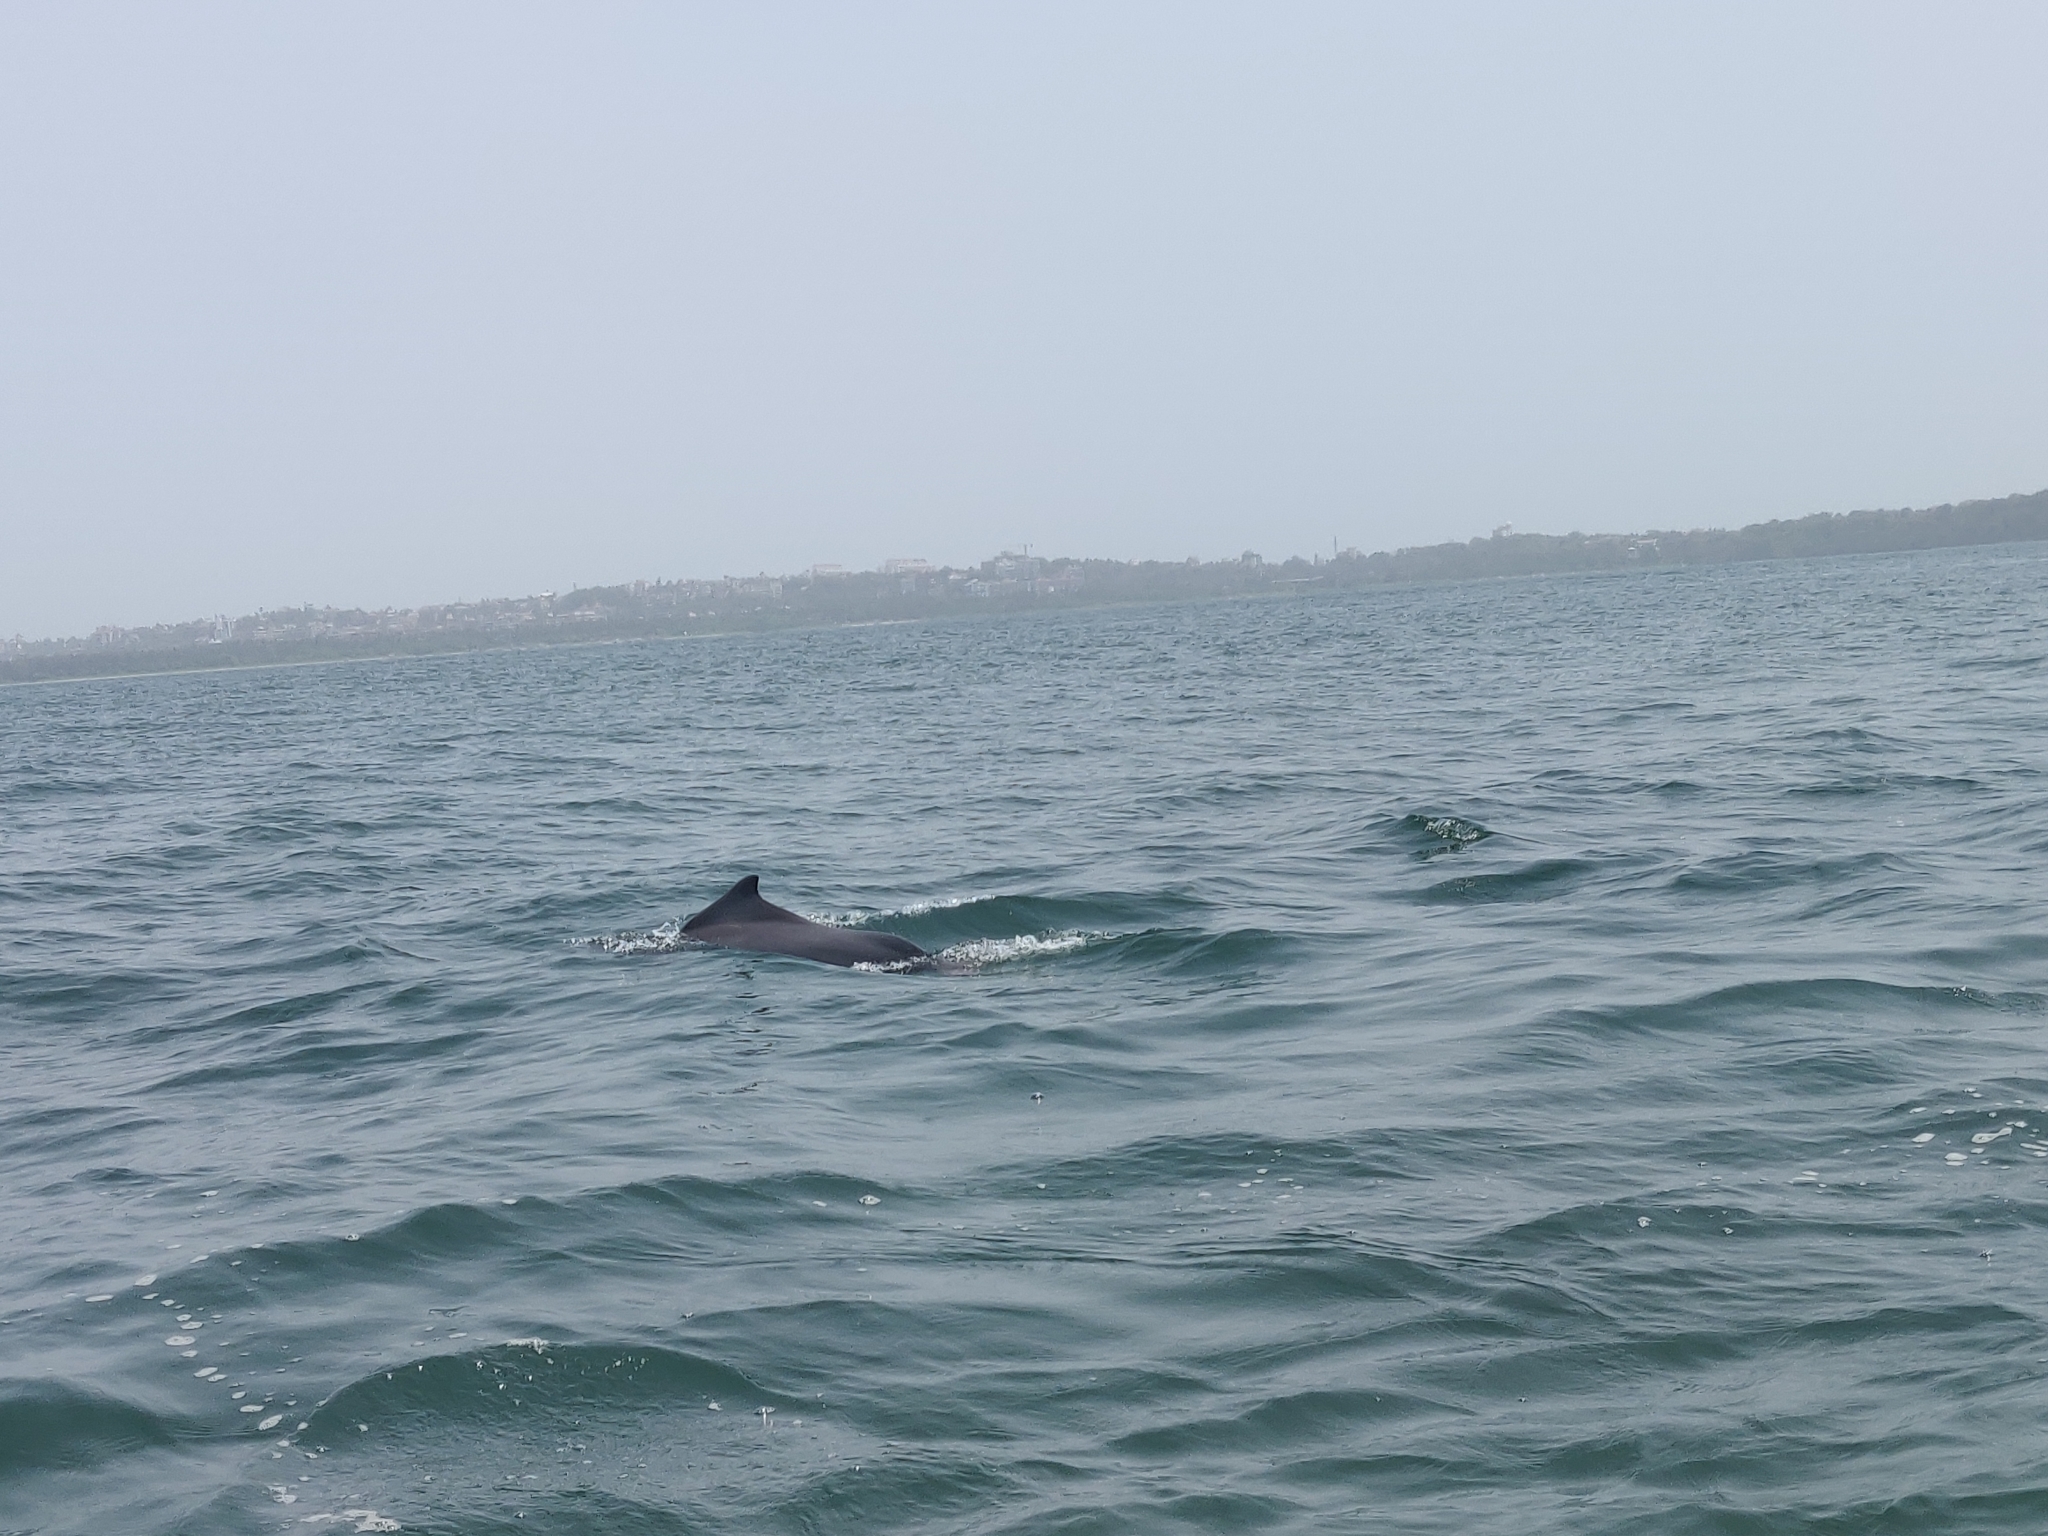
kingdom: Animalia
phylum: Chordata
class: Mammalia
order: Cetacea
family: Delphinidae
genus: Sousa
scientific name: Sousa plumbea
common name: Indian ocean humpback dolphin
